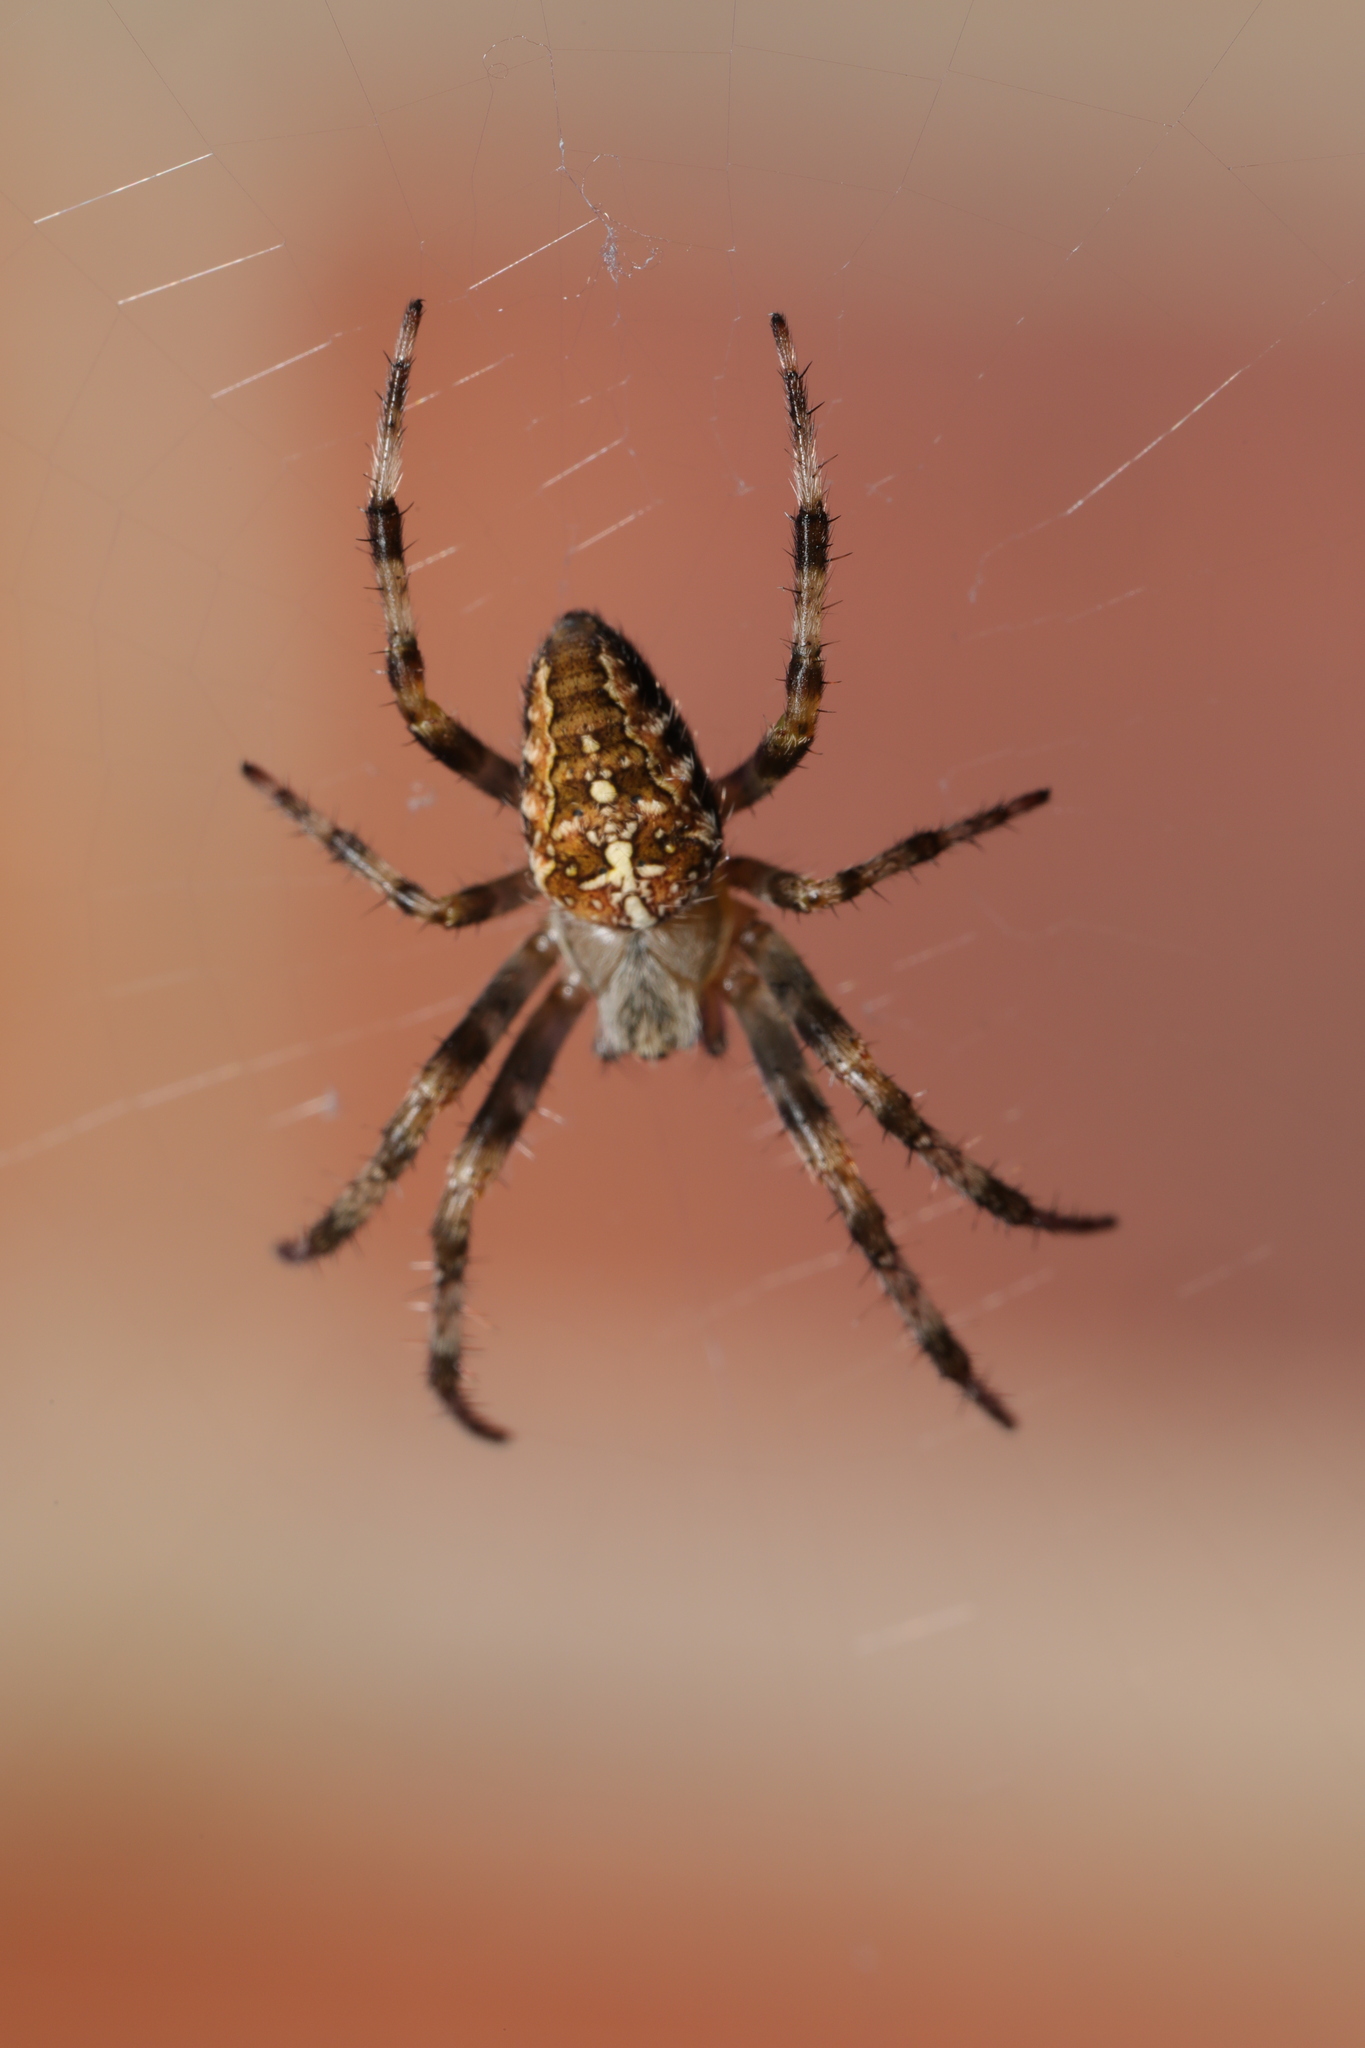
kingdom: Animalia
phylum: Arthropoda
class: Arachnida
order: Araneae
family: Araneidae
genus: Araneus
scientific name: Araneus diadematus
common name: Cross orbweaver
